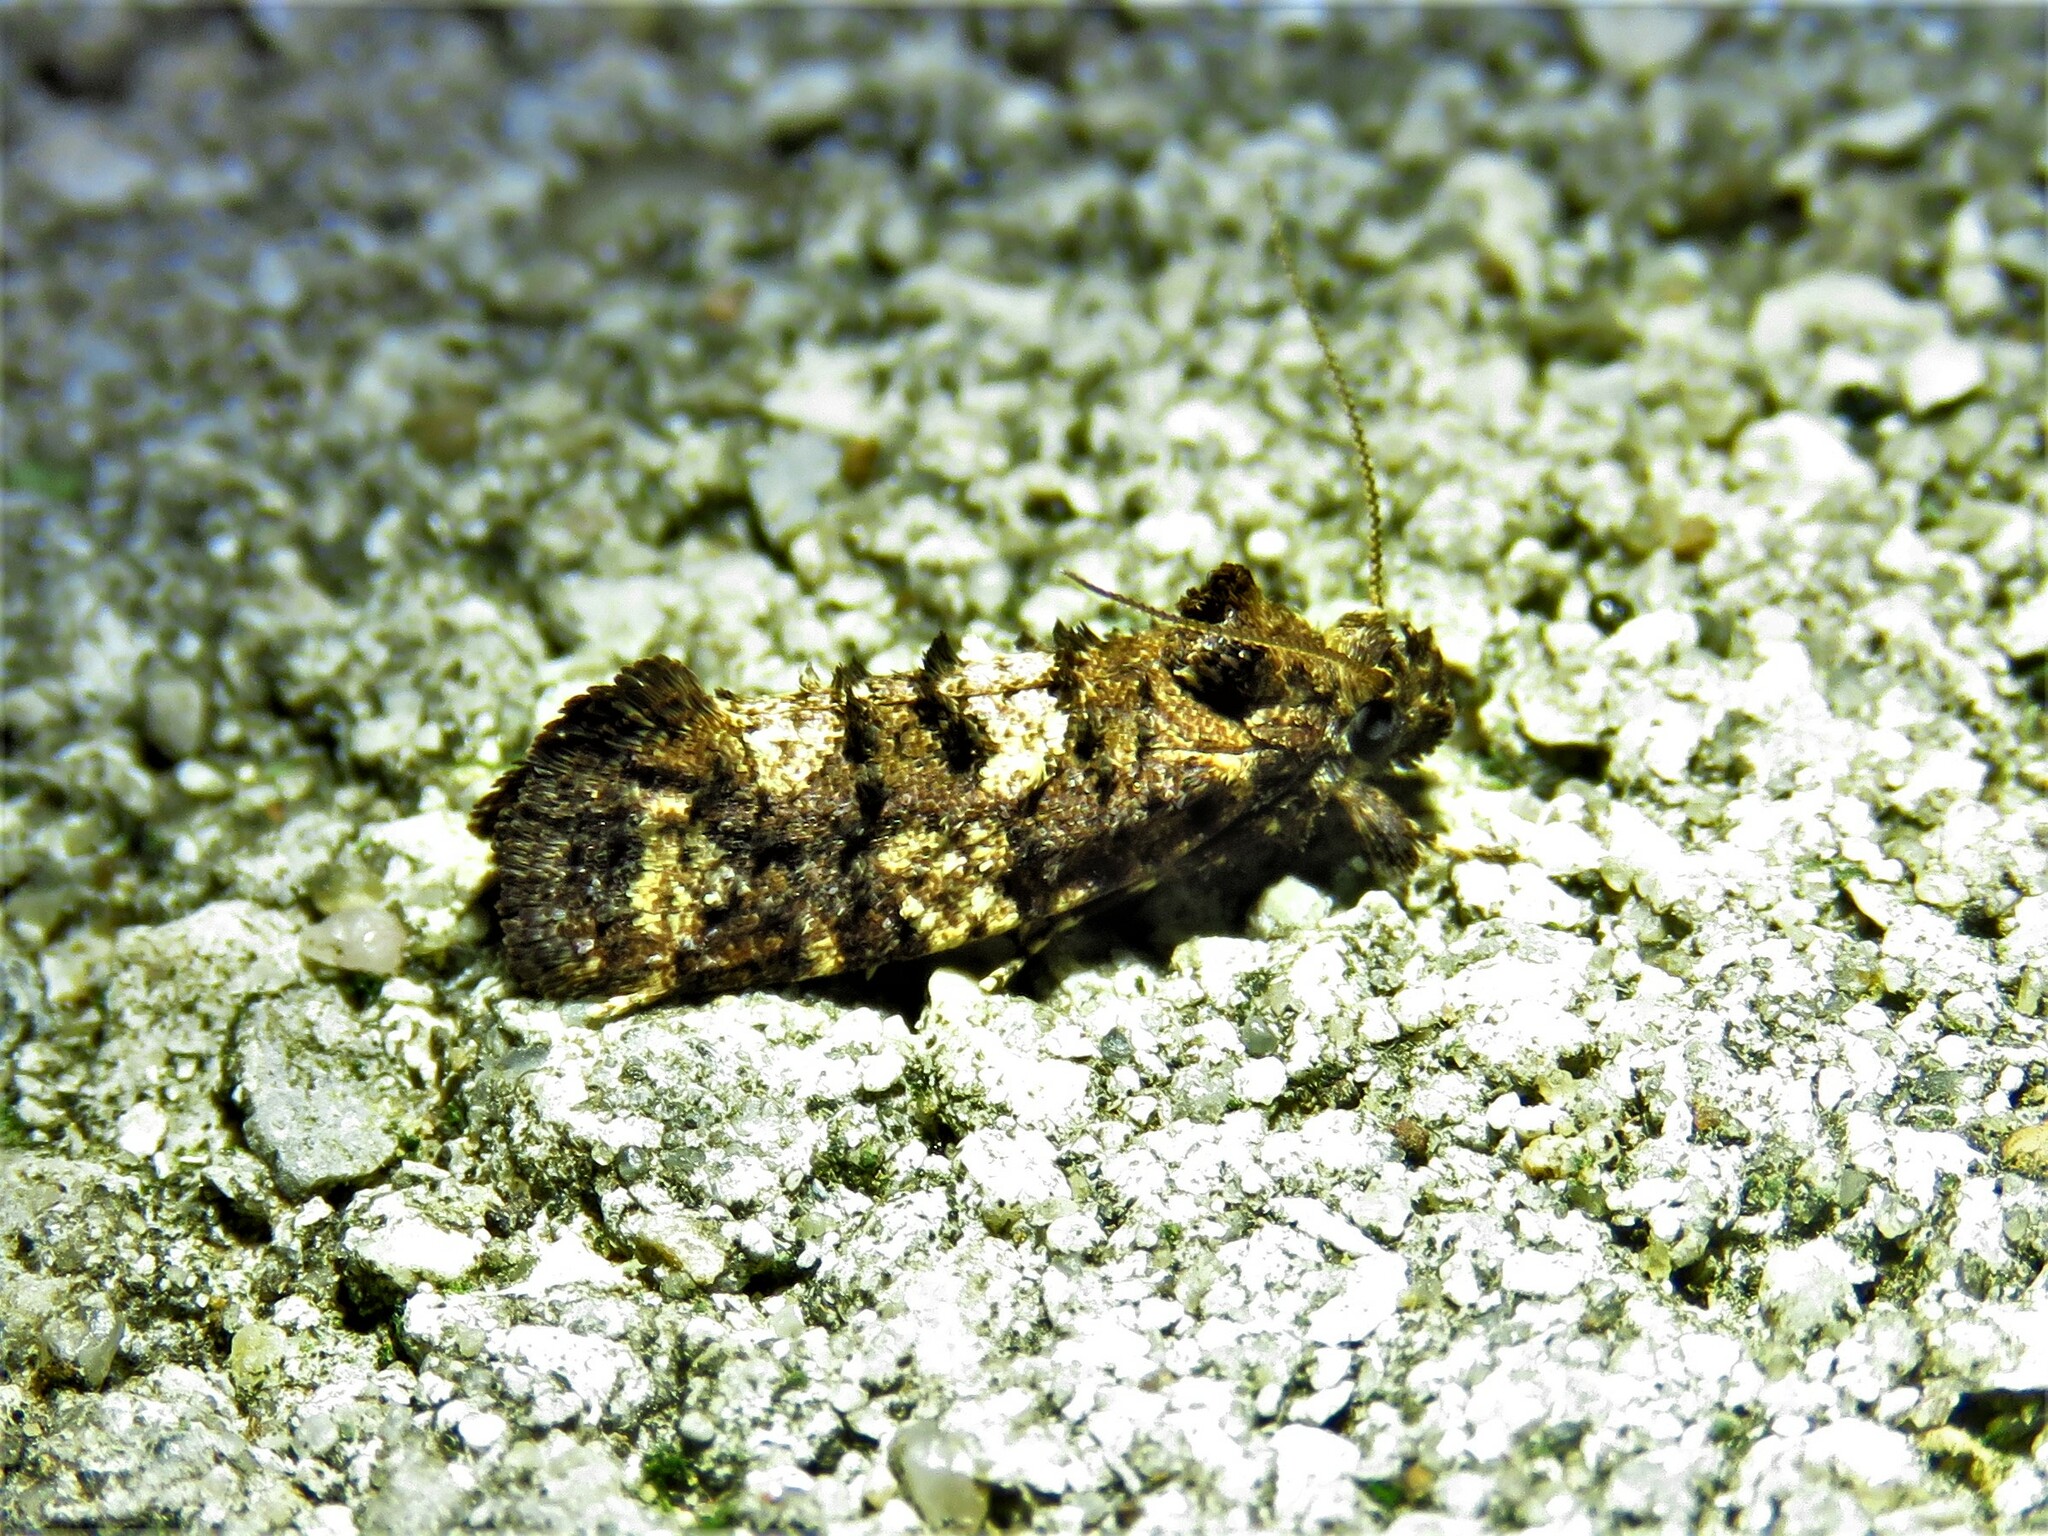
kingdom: Animalia
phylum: Arthropoda
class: Insecta
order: Lepidoptera
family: Tineidae
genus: Acrolophus
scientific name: Acrolophus cressoni
